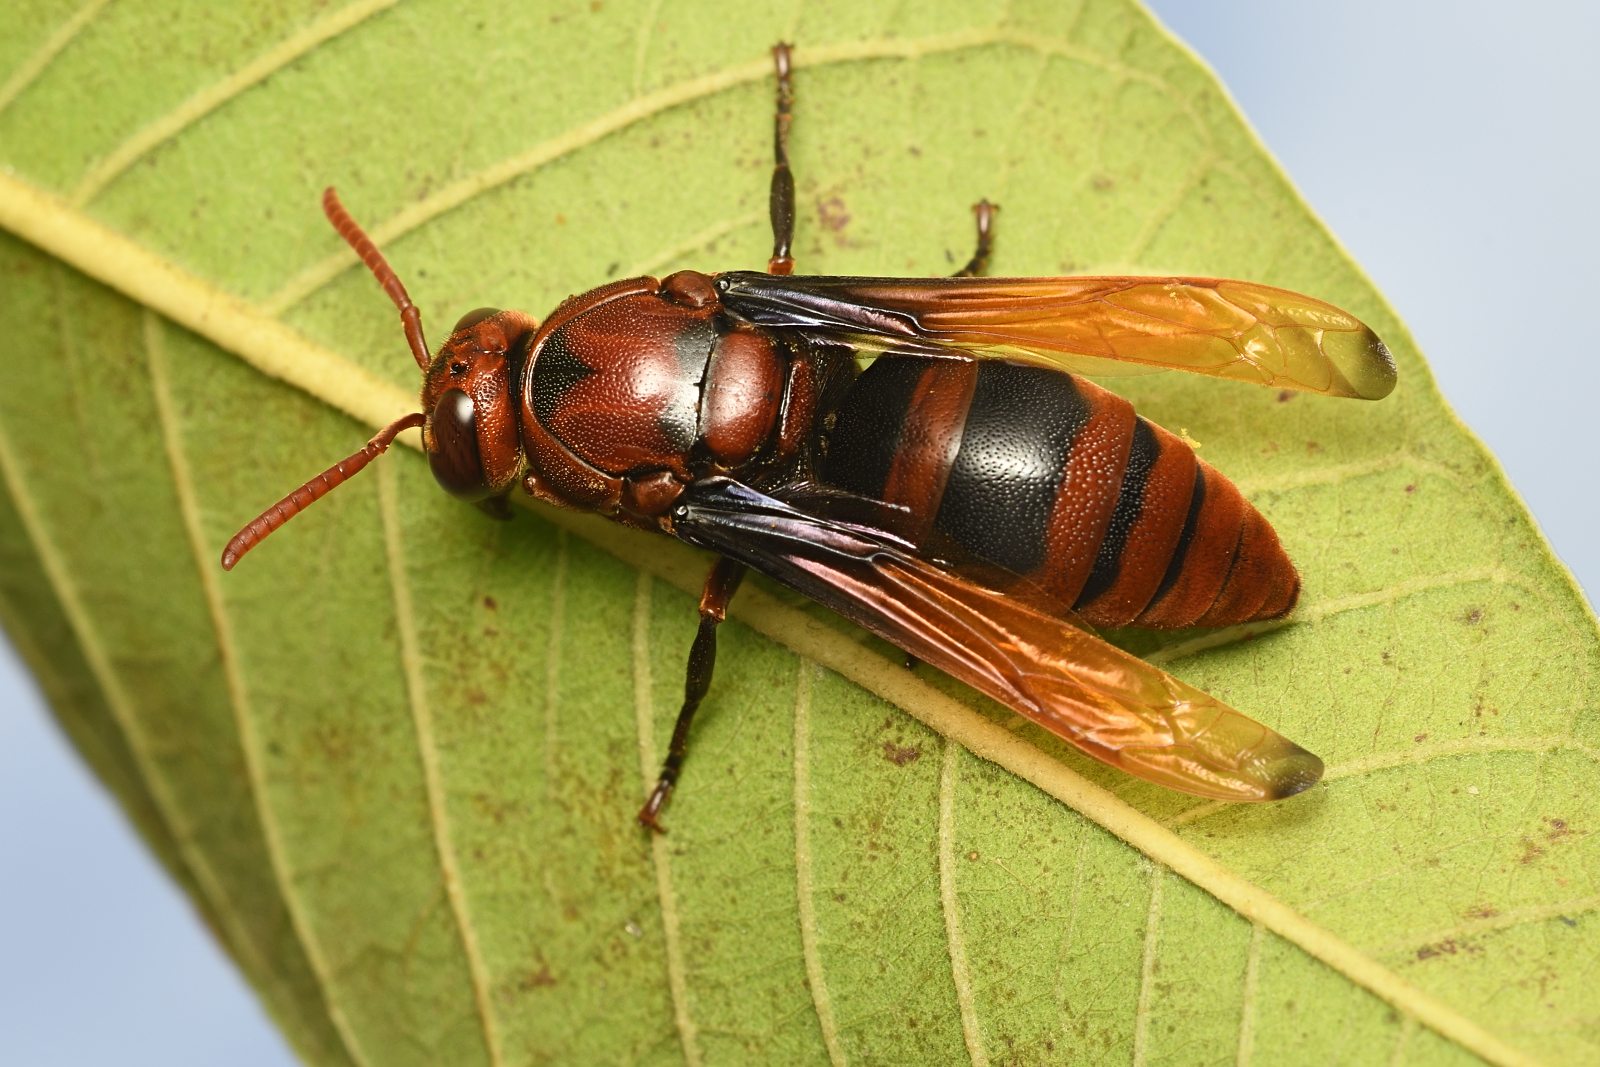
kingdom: Animalia
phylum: Arthropoda
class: Insecta
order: Hymenoptera
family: Eumenidae
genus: Rhynchium
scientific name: Rhynchium brunneum
